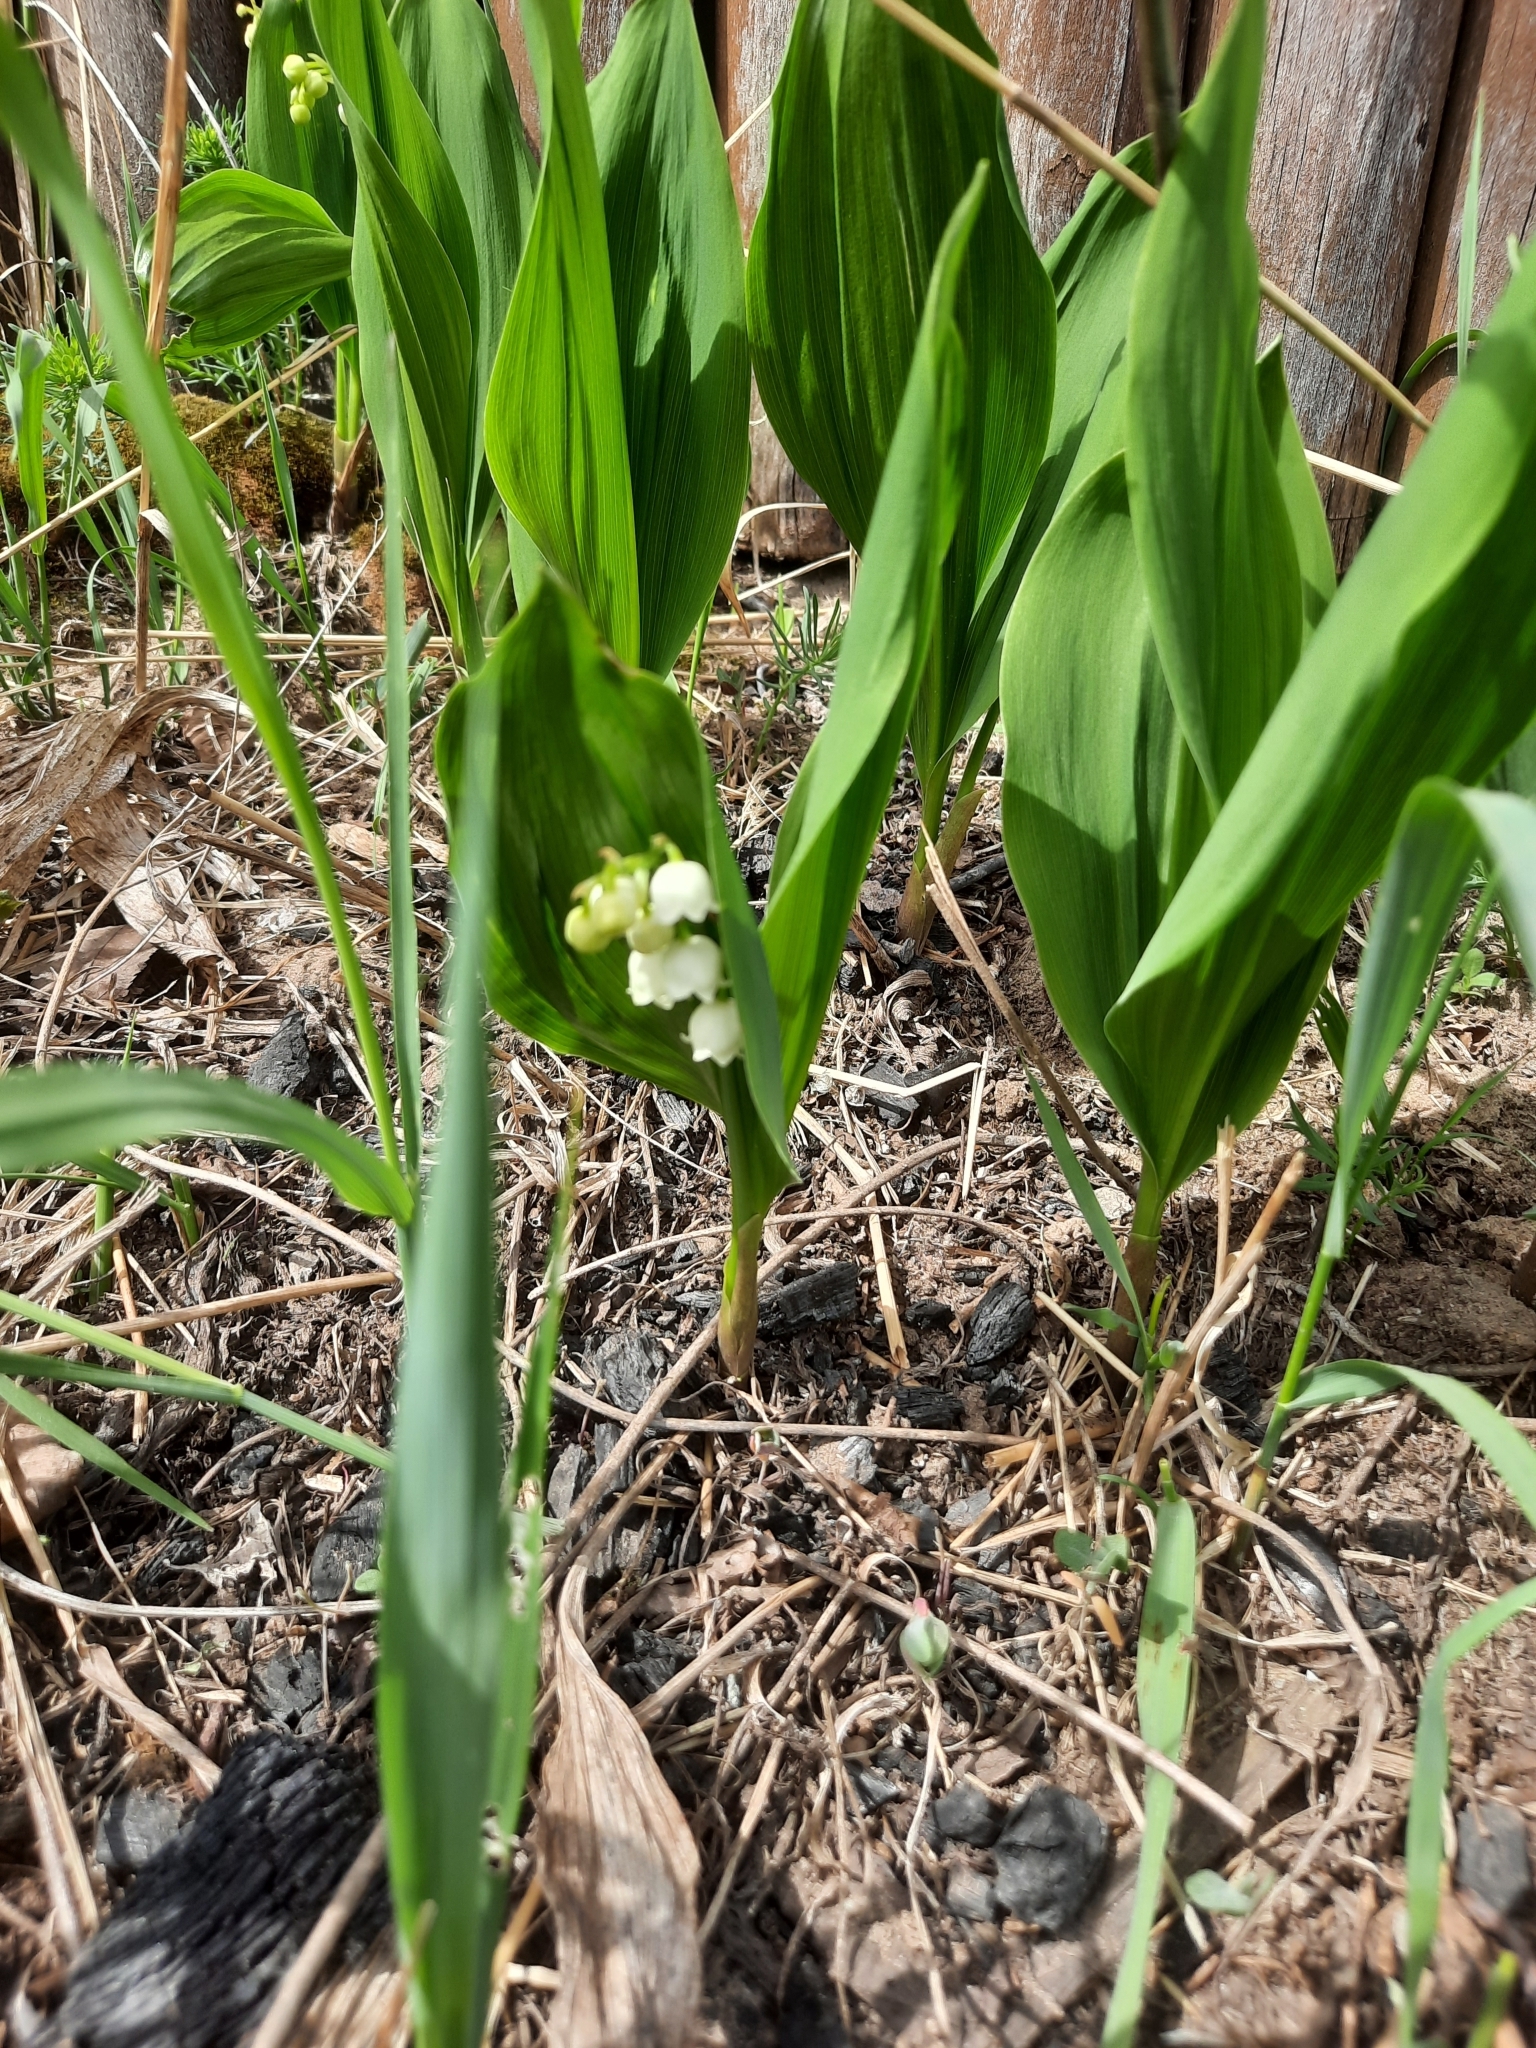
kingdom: Plantae
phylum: Tracheophyta
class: Liliopsida
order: Asparagales
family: Asparagaceae
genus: Convallaria
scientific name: Convallaria majalis
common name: Lily-of-the-valley
